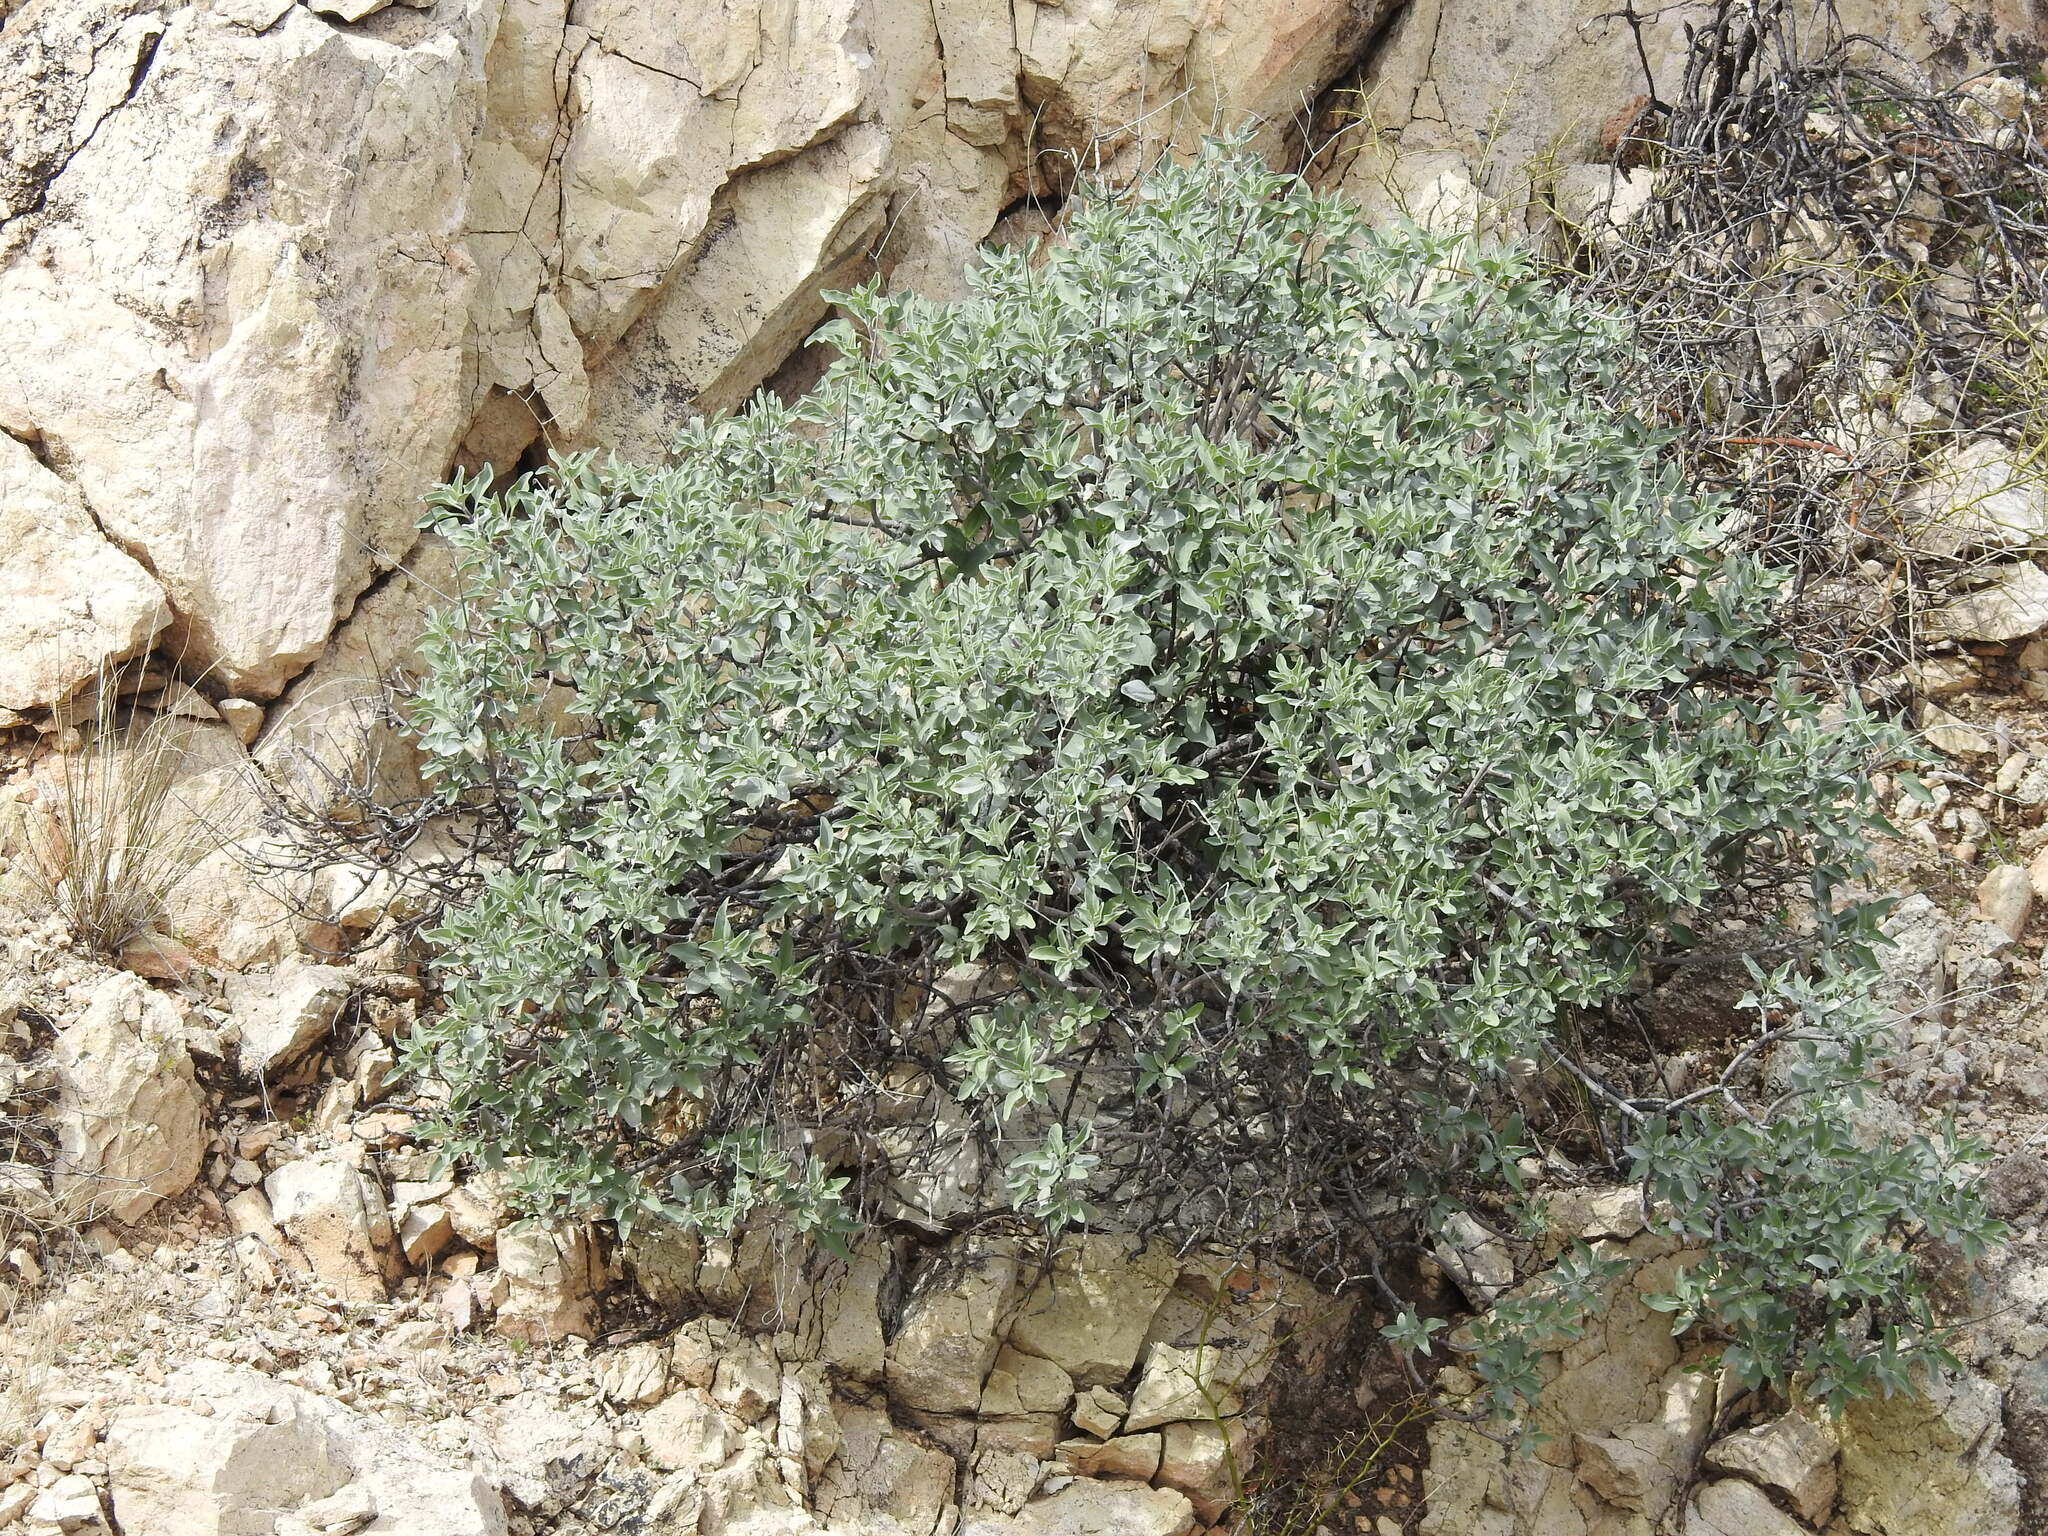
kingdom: Plantae
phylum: Tracheophyta
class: Magnoliopsida
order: Asterales
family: Asteraceae
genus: Encelia
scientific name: Encelia farinosa
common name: Brittlebush
